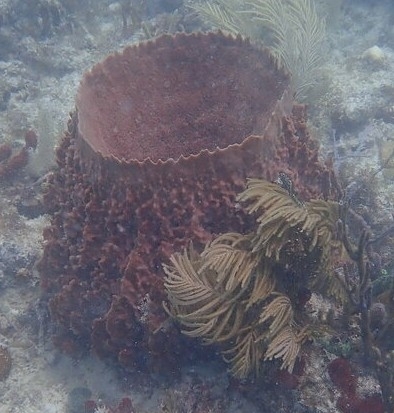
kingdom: Animalia
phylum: Porifera
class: Demospongiae
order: Haplosclerida
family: Petrosiidae
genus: Xestospongia
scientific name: Xestospongia muta
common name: Giant barrel sponge
